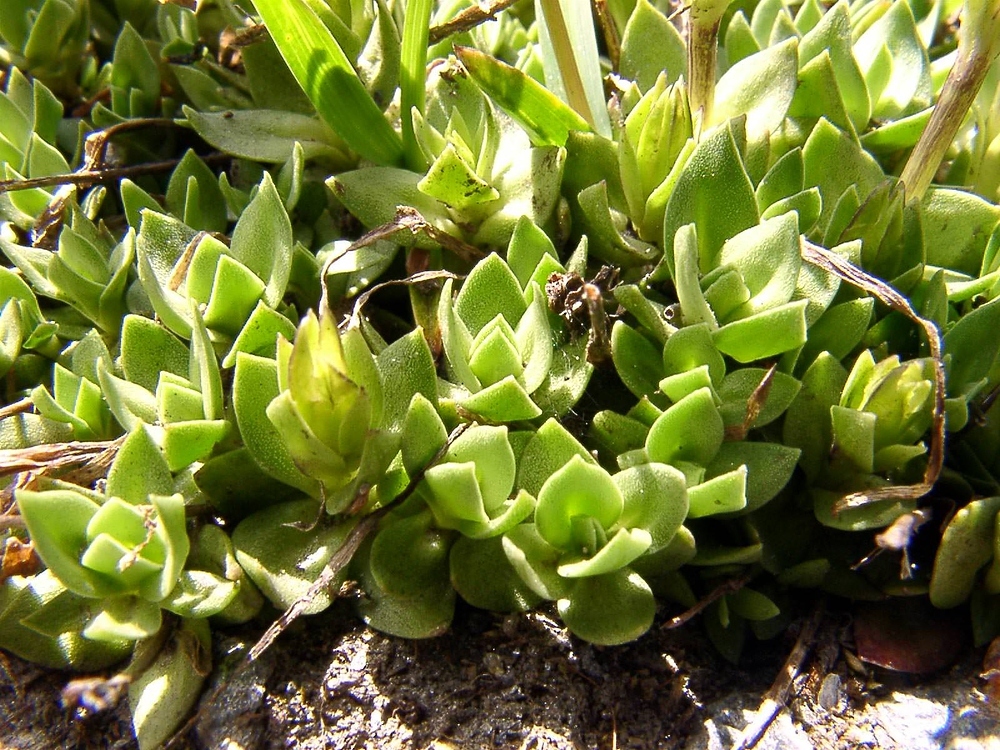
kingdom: Plantae
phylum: Tracheophyta
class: Magnoliopsida
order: Gentianales
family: Gentianaceae
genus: Gentiana
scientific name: Gentiana terglouensis
